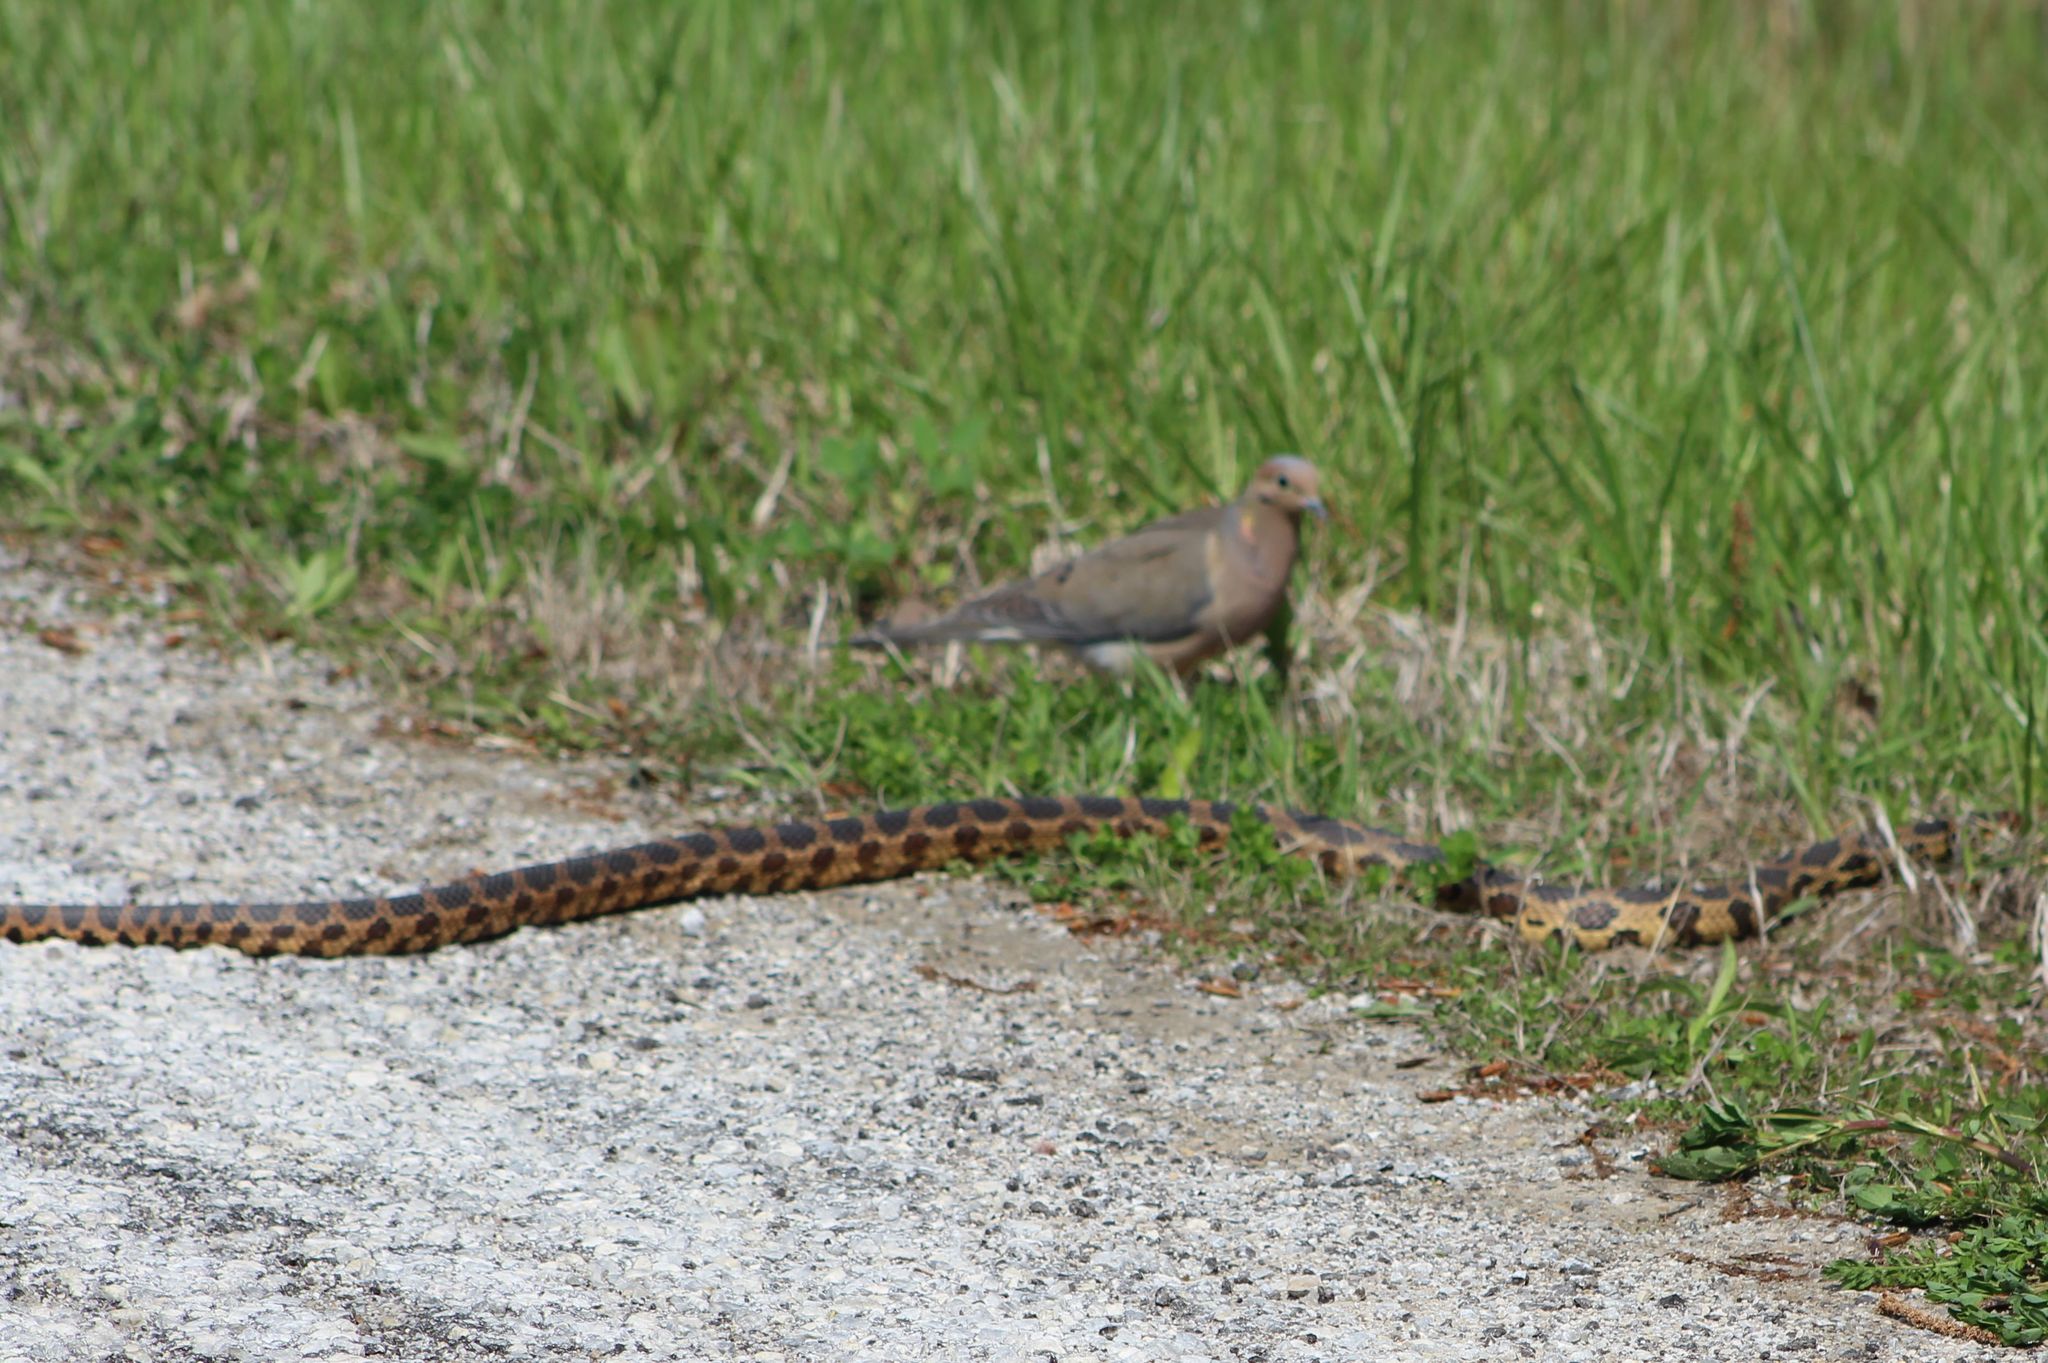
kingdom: Animalia
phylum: Chordata
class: Squamata
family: Colubridae
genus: Pantherophis
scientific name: Pantherophis vulpinus
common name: Eastern fox snake
